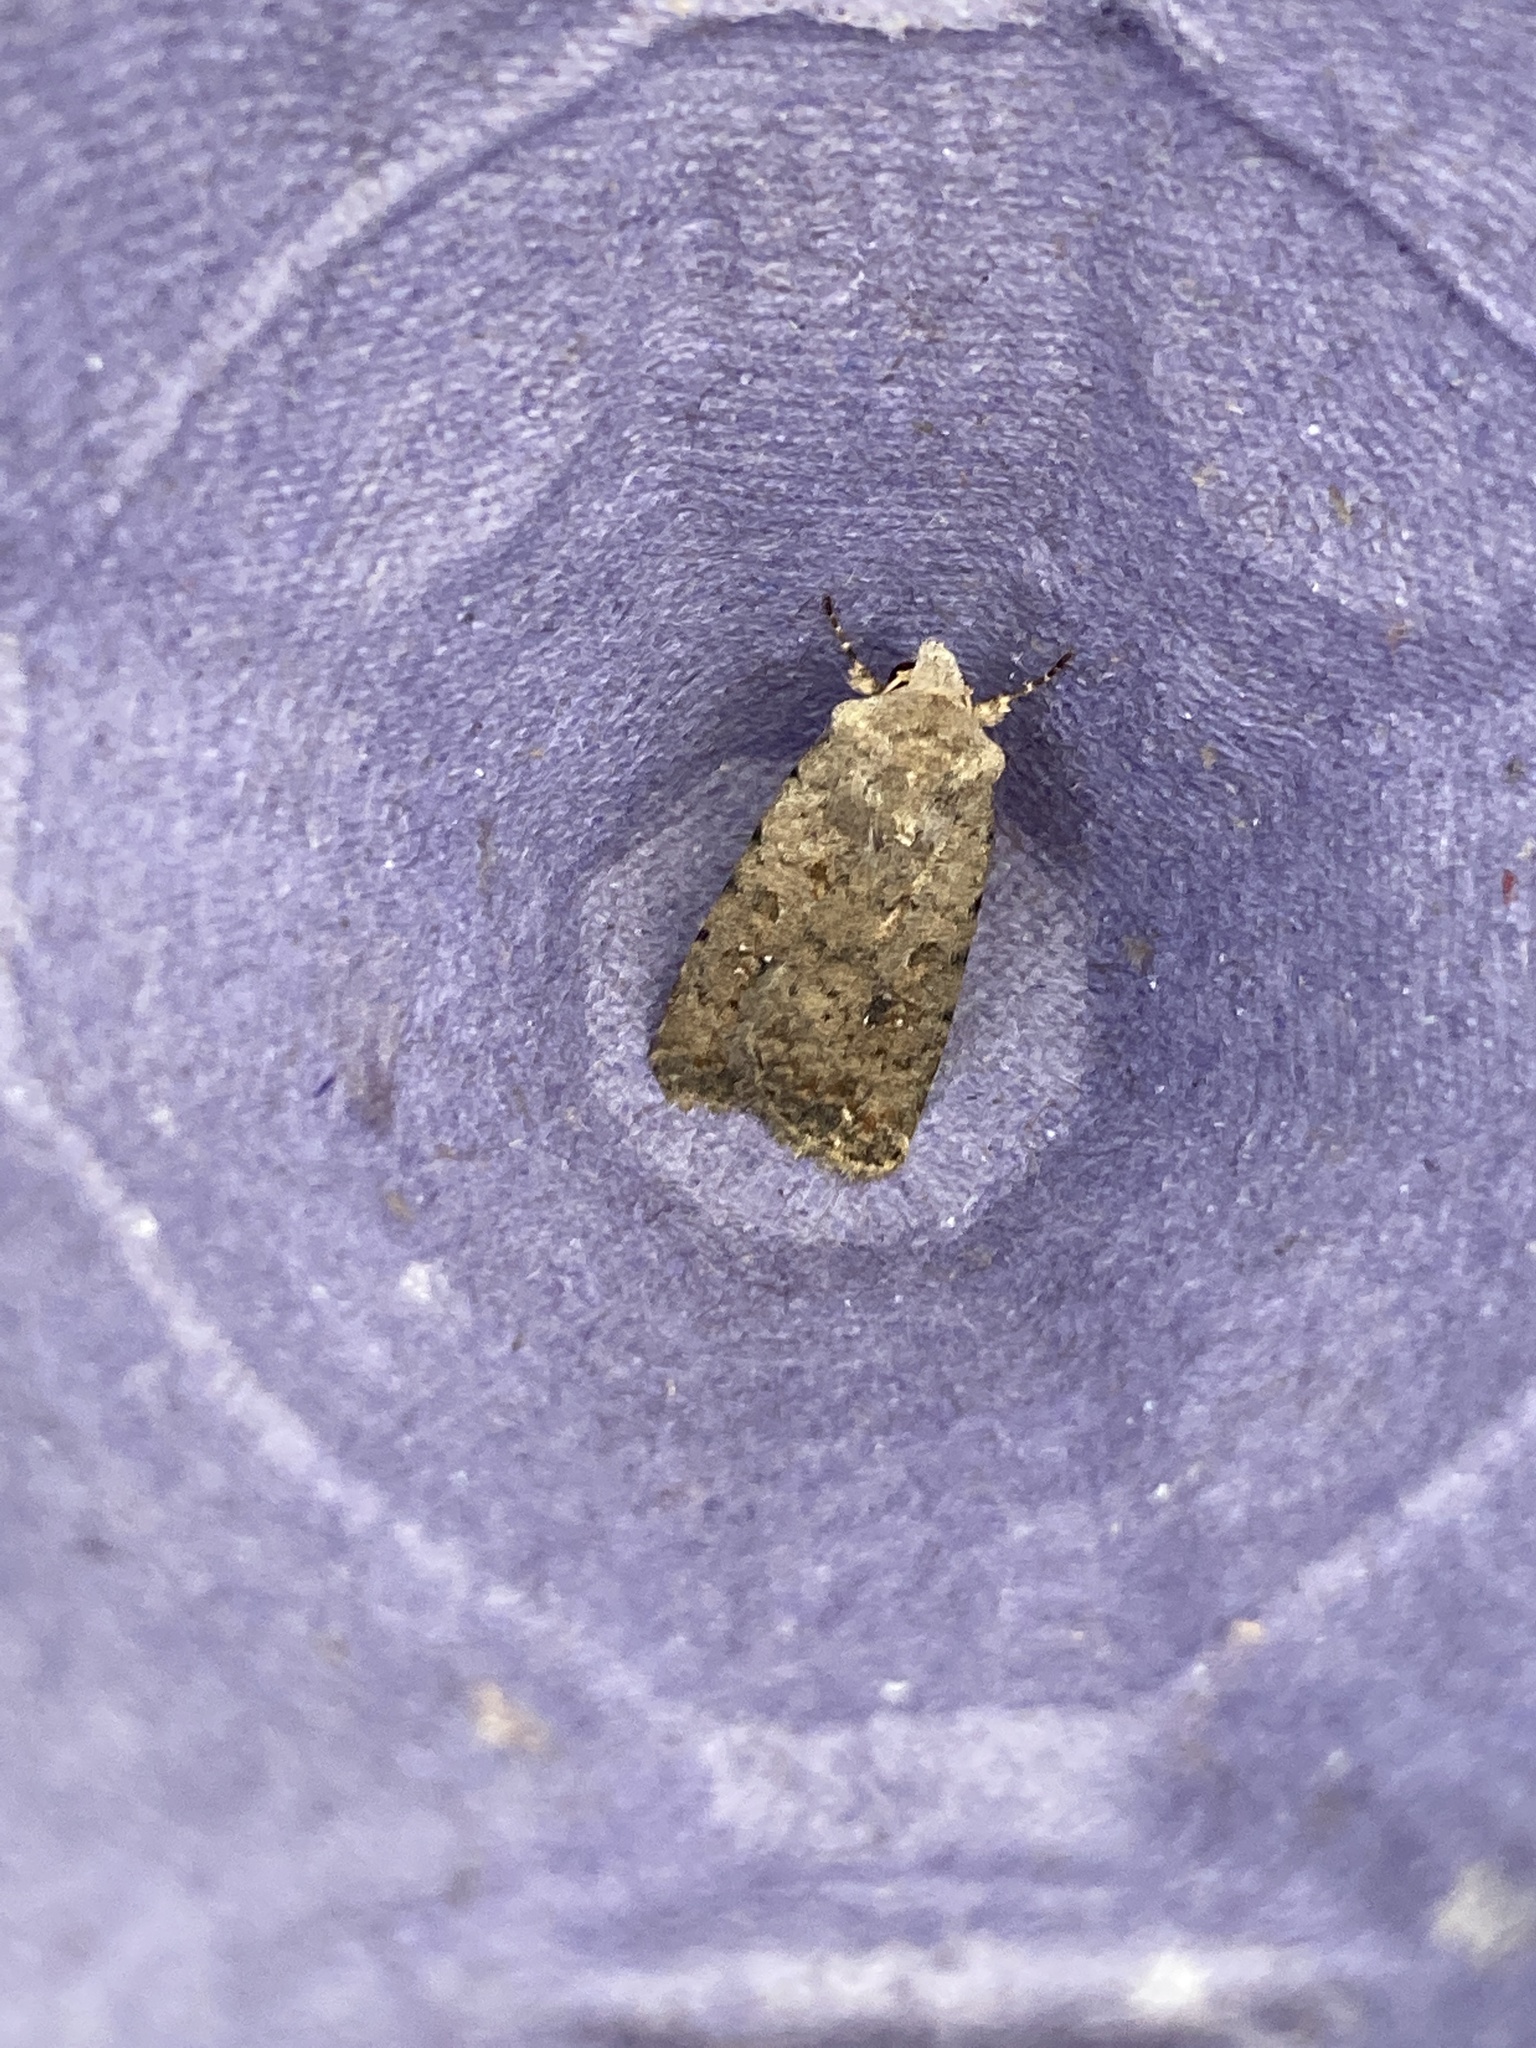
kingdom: Animalia
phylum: Arthropoda
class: Insecta
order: Lepidoptera
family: Noctuidae
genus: Caradrina
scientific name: Caradrina clavipalpis
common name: Pale mottled willow
